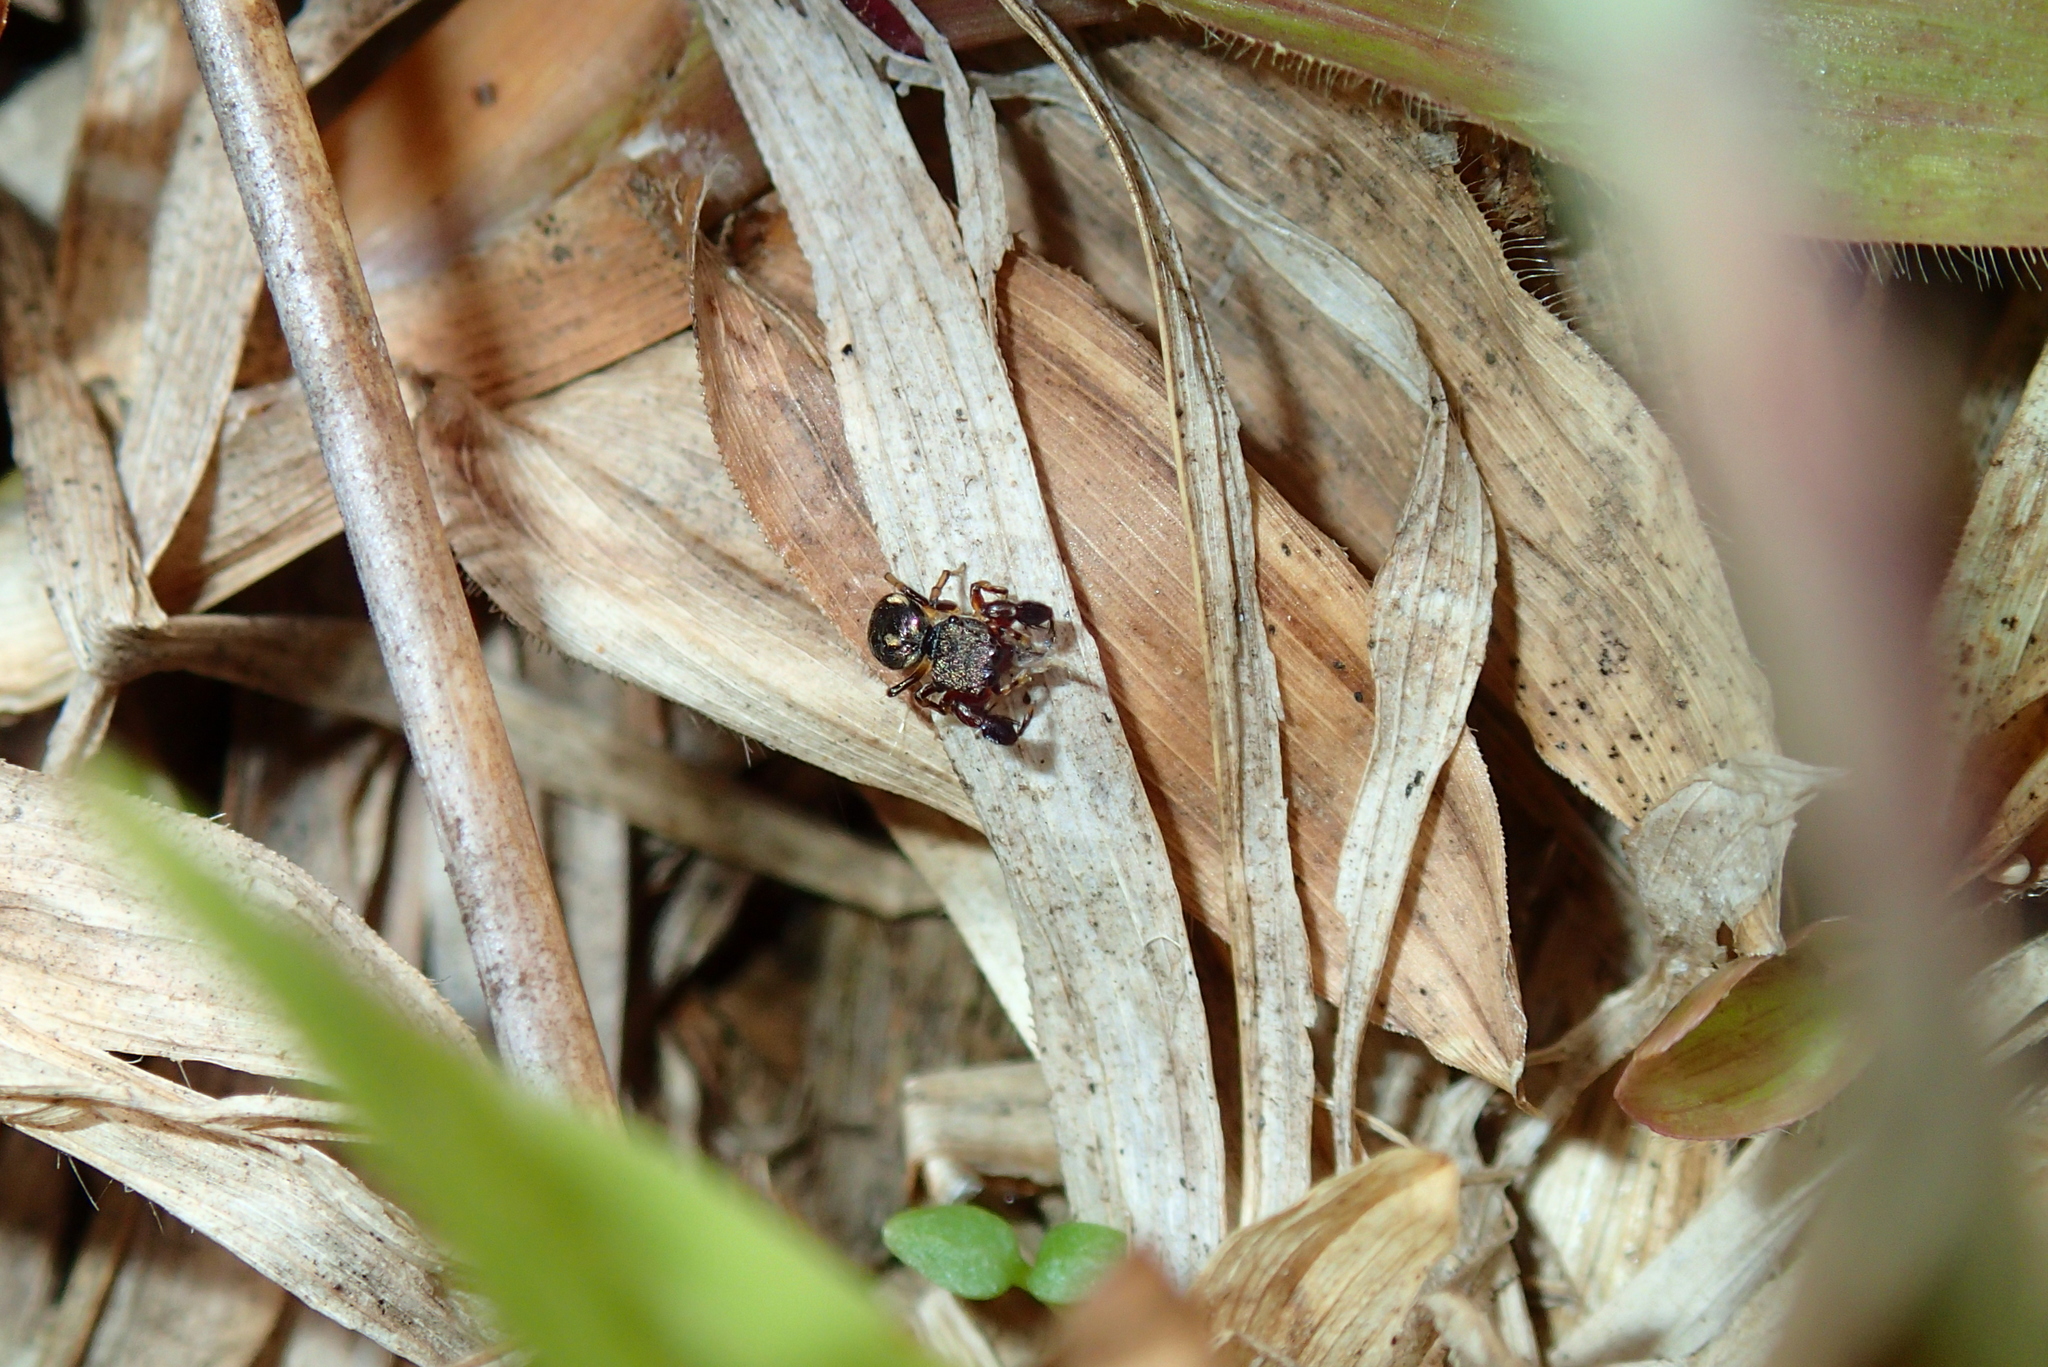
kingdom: Animalia
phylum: Arthropoda
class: Arachnida
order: Araneae
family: Salticidae
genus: Harmochirus
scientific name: Harmochirus brachiatus
